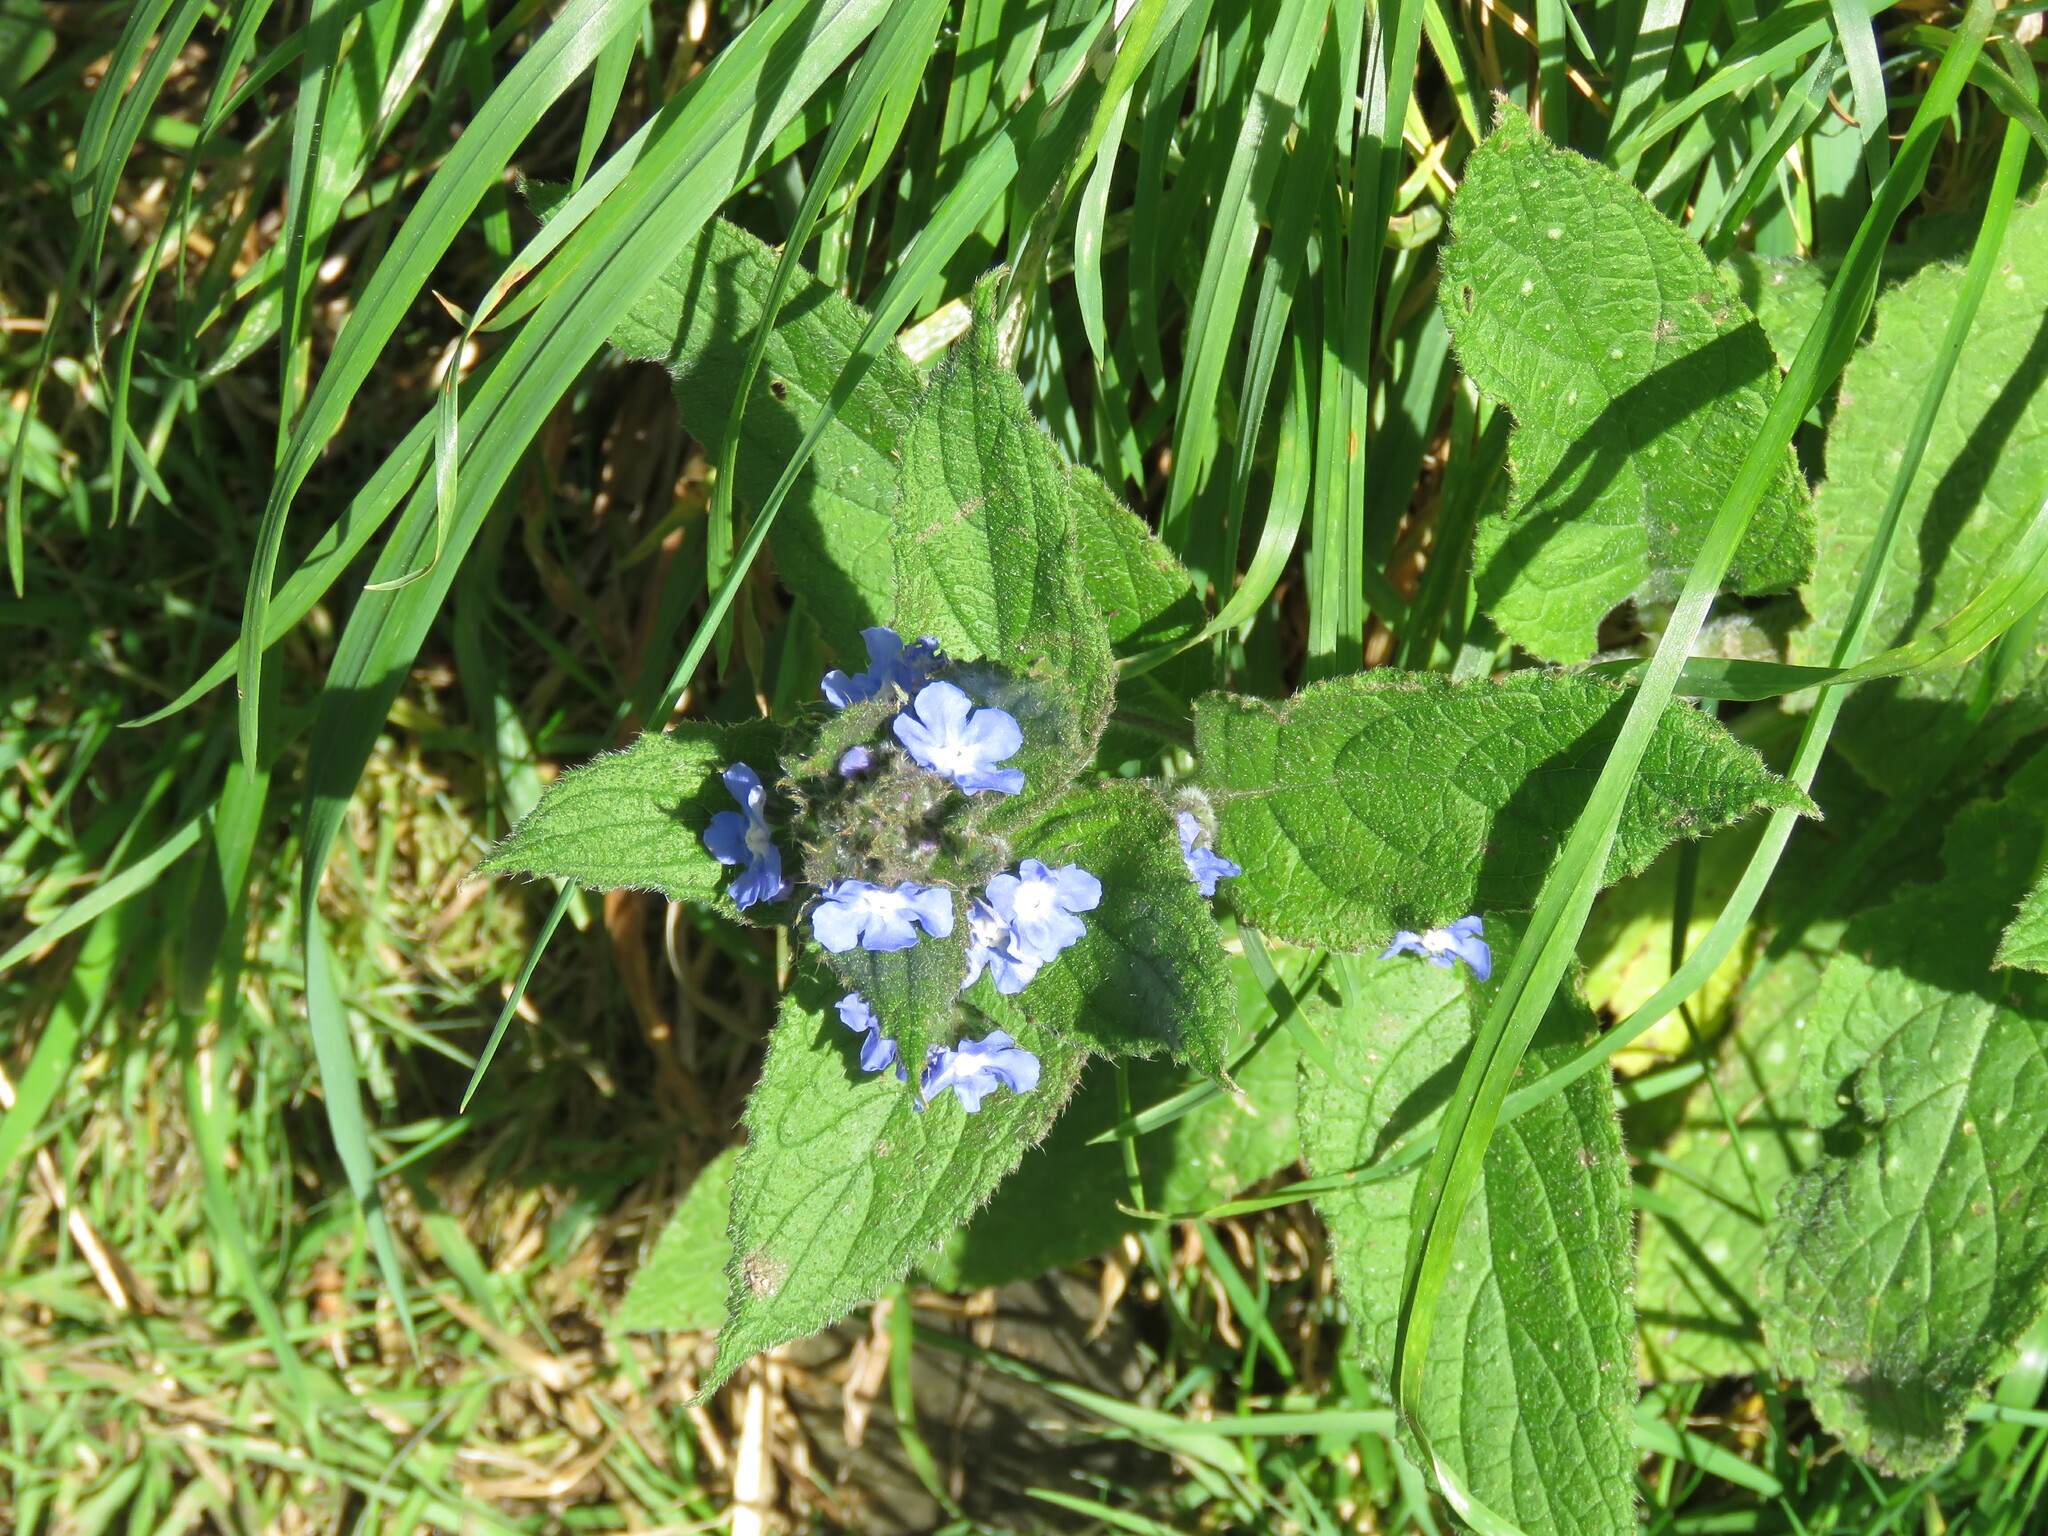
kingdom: Plantae
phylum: Tracheophyta
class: Magnoliopsida
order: Boraginales
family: Boraginaceae
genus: Pentaglottis
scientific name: Pentaglottis sempervirens
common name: Green alkanet
